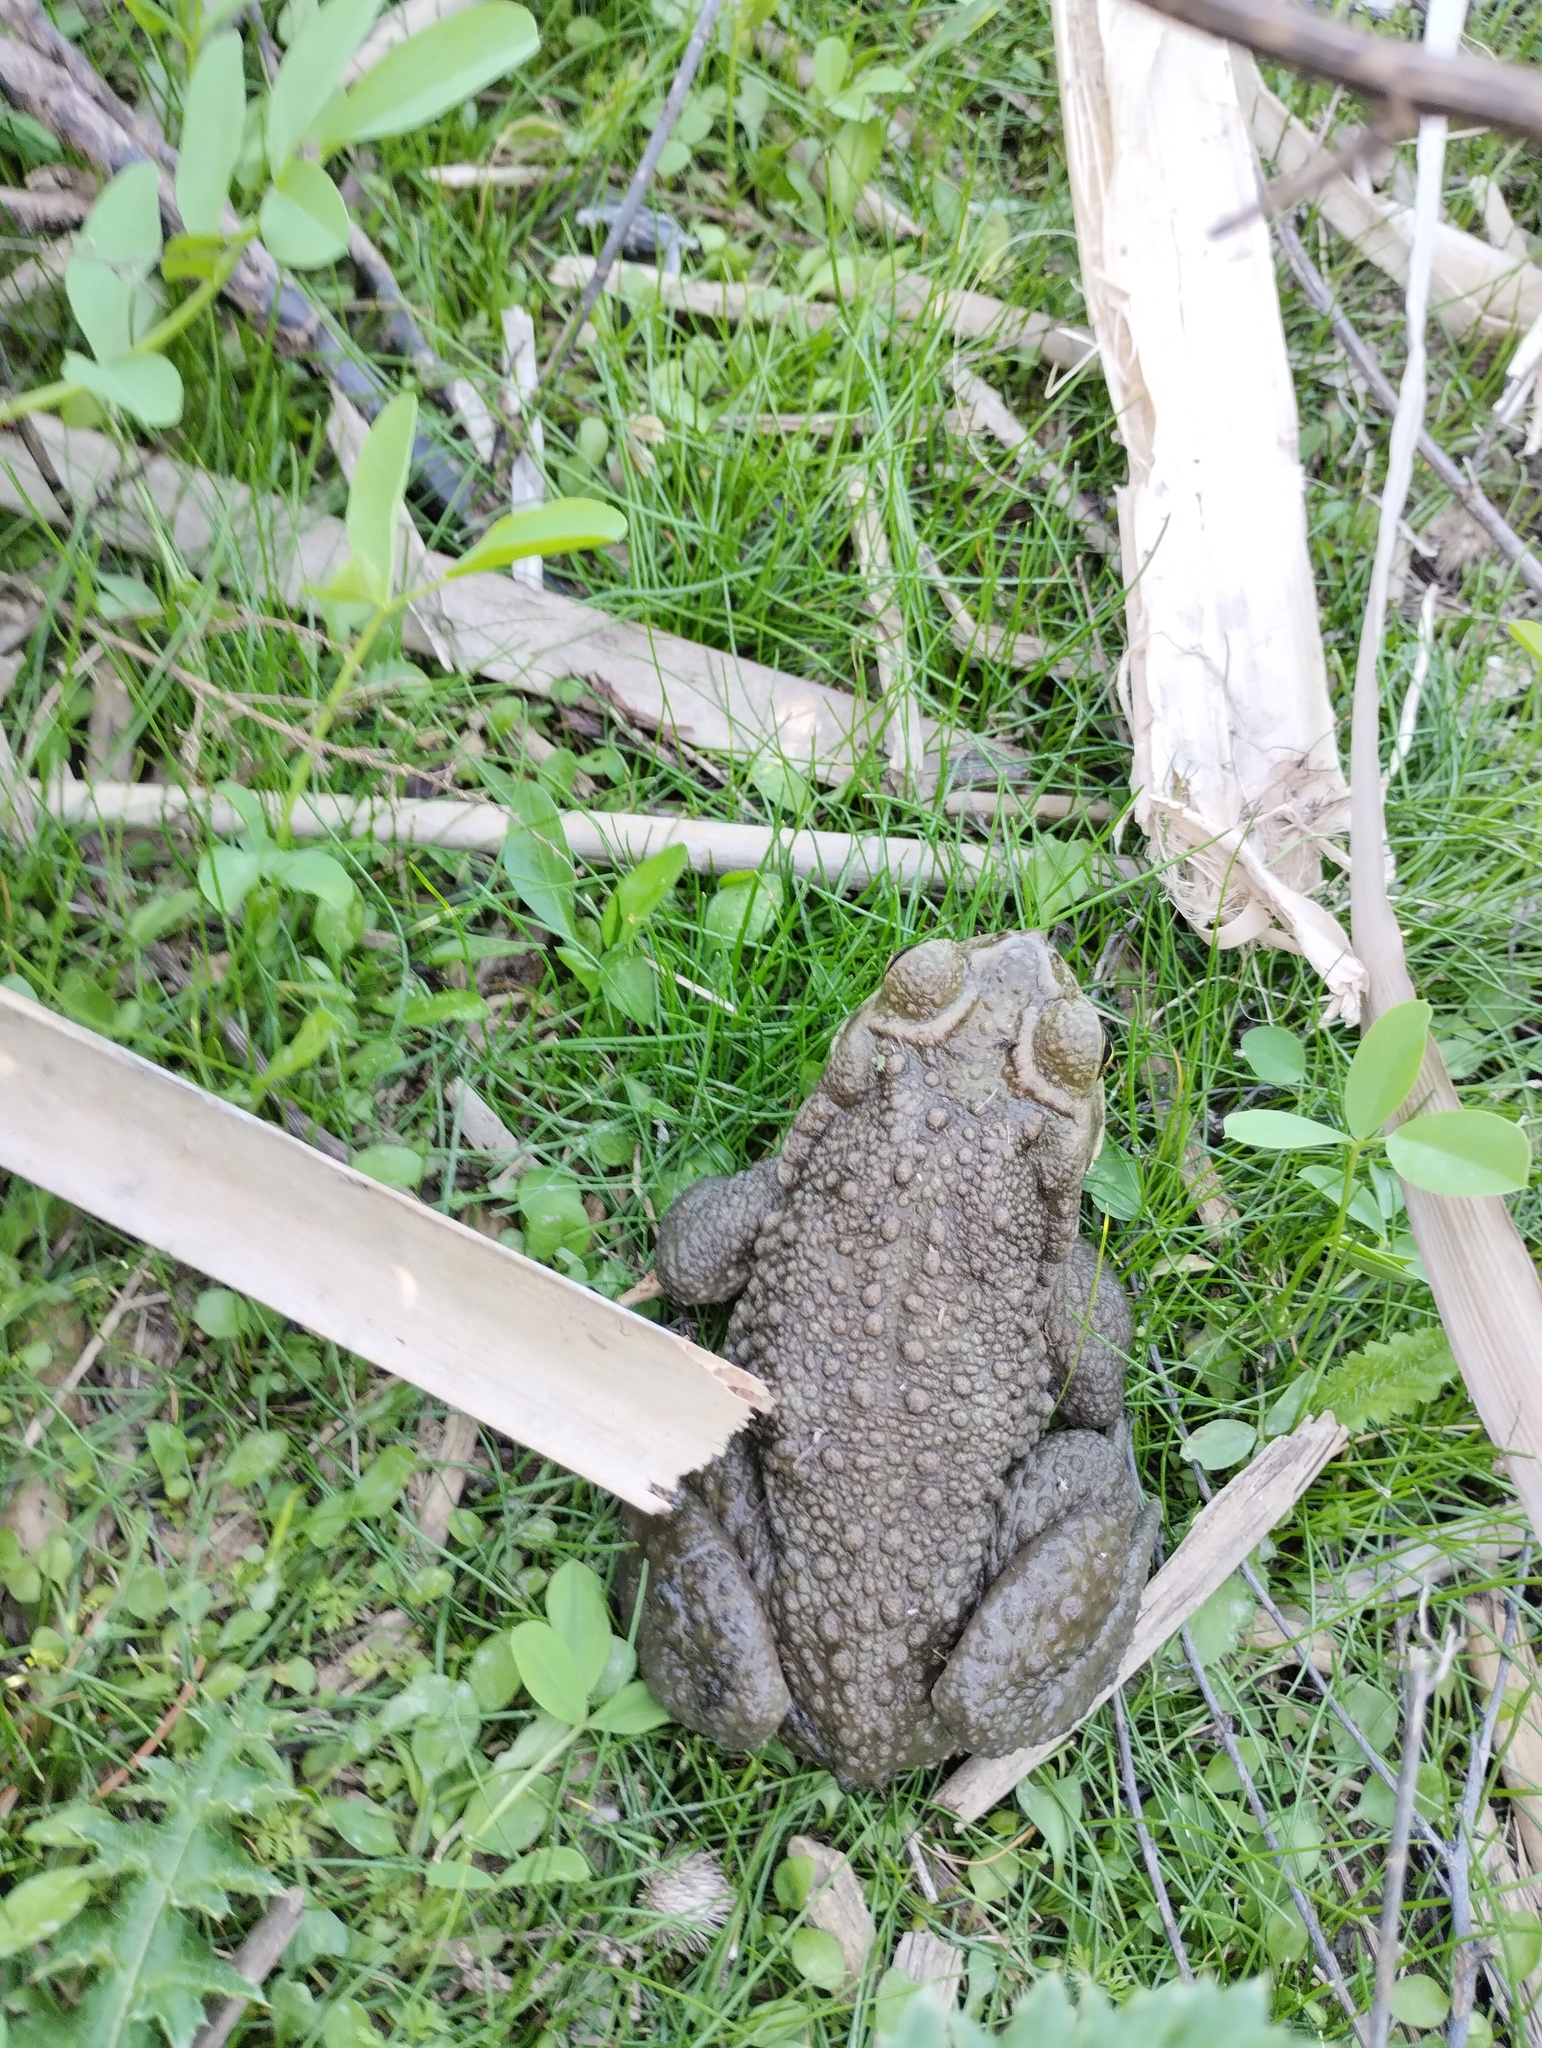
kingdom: Animalia
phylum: Chordata
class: Amphibia
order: Anura
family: Bufonidae
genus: Rhinella
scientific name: Rhinella arenarum
